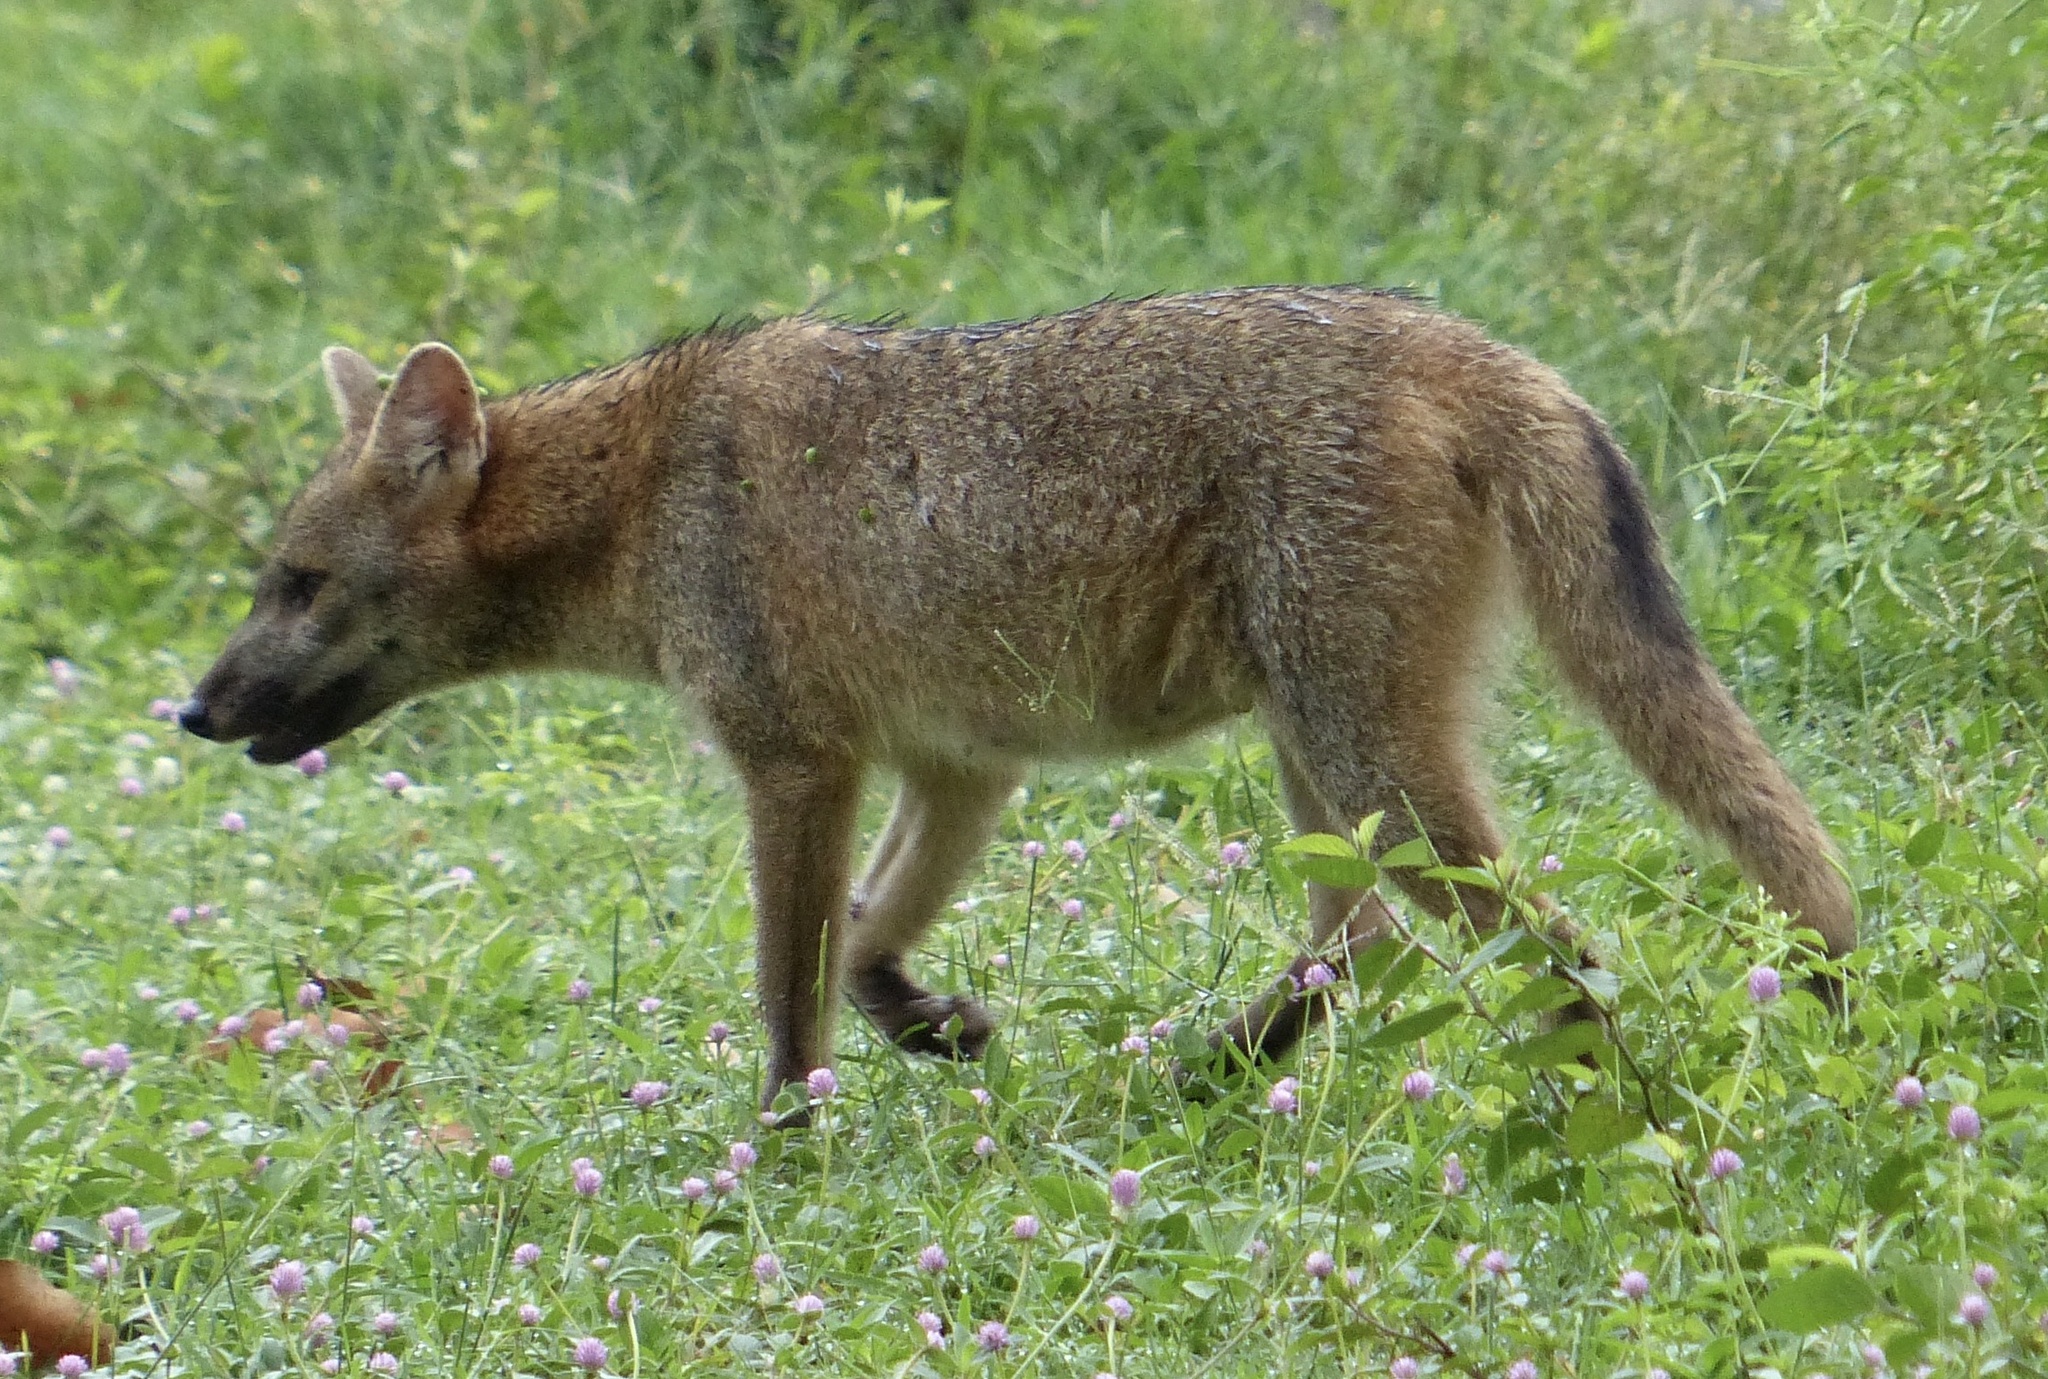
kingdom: Animalia
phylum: Chordata
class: Mammalia
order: Carnivora
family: Canidae
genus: Cerdocyon
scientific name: Cerdocyon thous
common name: Crab-eating fox
